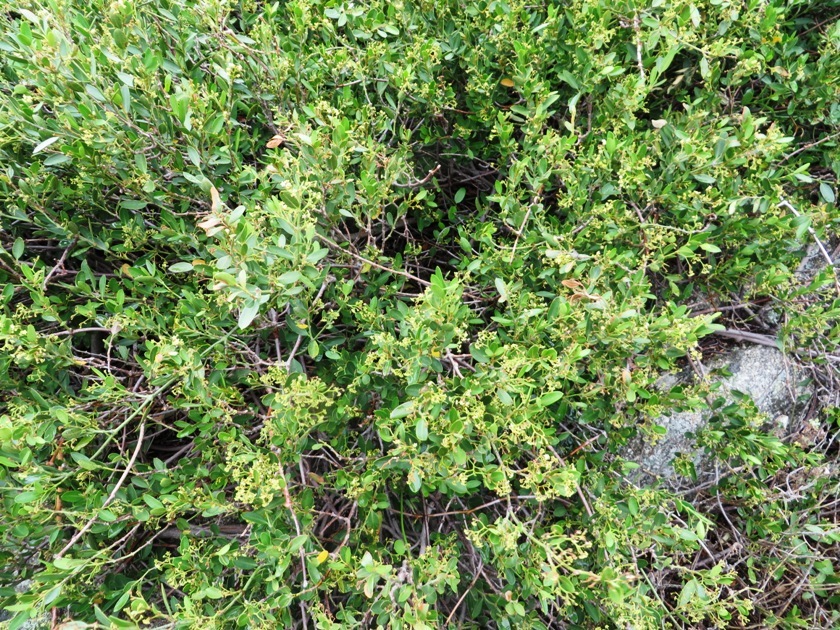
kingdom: Plantae
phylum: Tracheophyta
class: Magnoliopsida
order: Gentianales
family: Apocynaceae
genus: Secamone
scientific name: Secamone alpini
